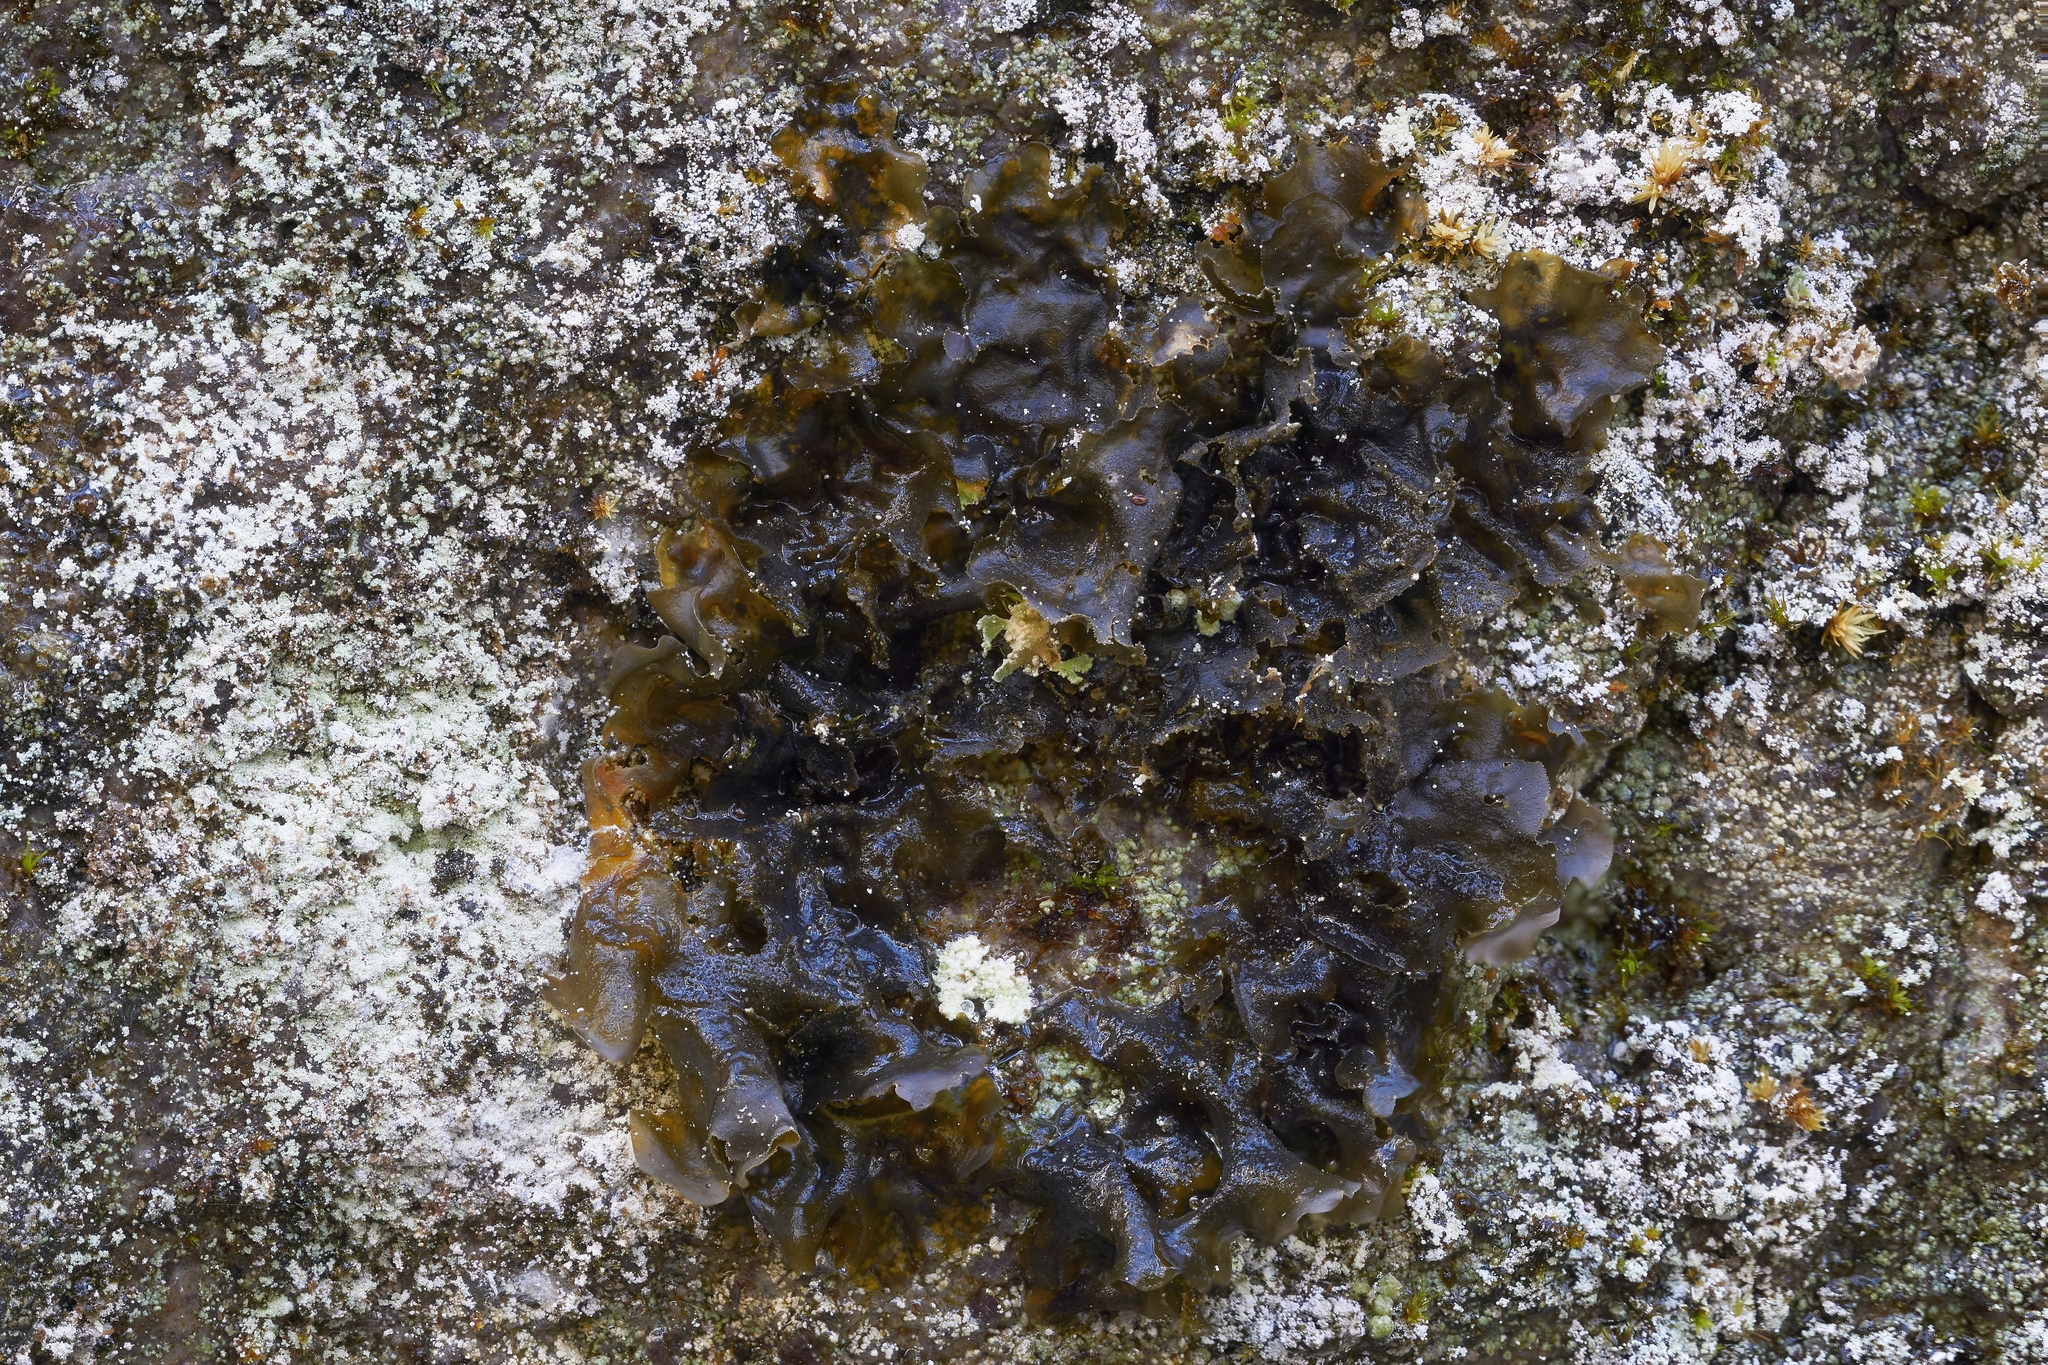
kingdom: Fungi
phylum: Ascomycota
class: Lecanoromycetes
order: Peltigerales
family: Collemataceae
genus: Leptogium
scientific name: Leptogium cyanescens
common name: Blue jellyskin
